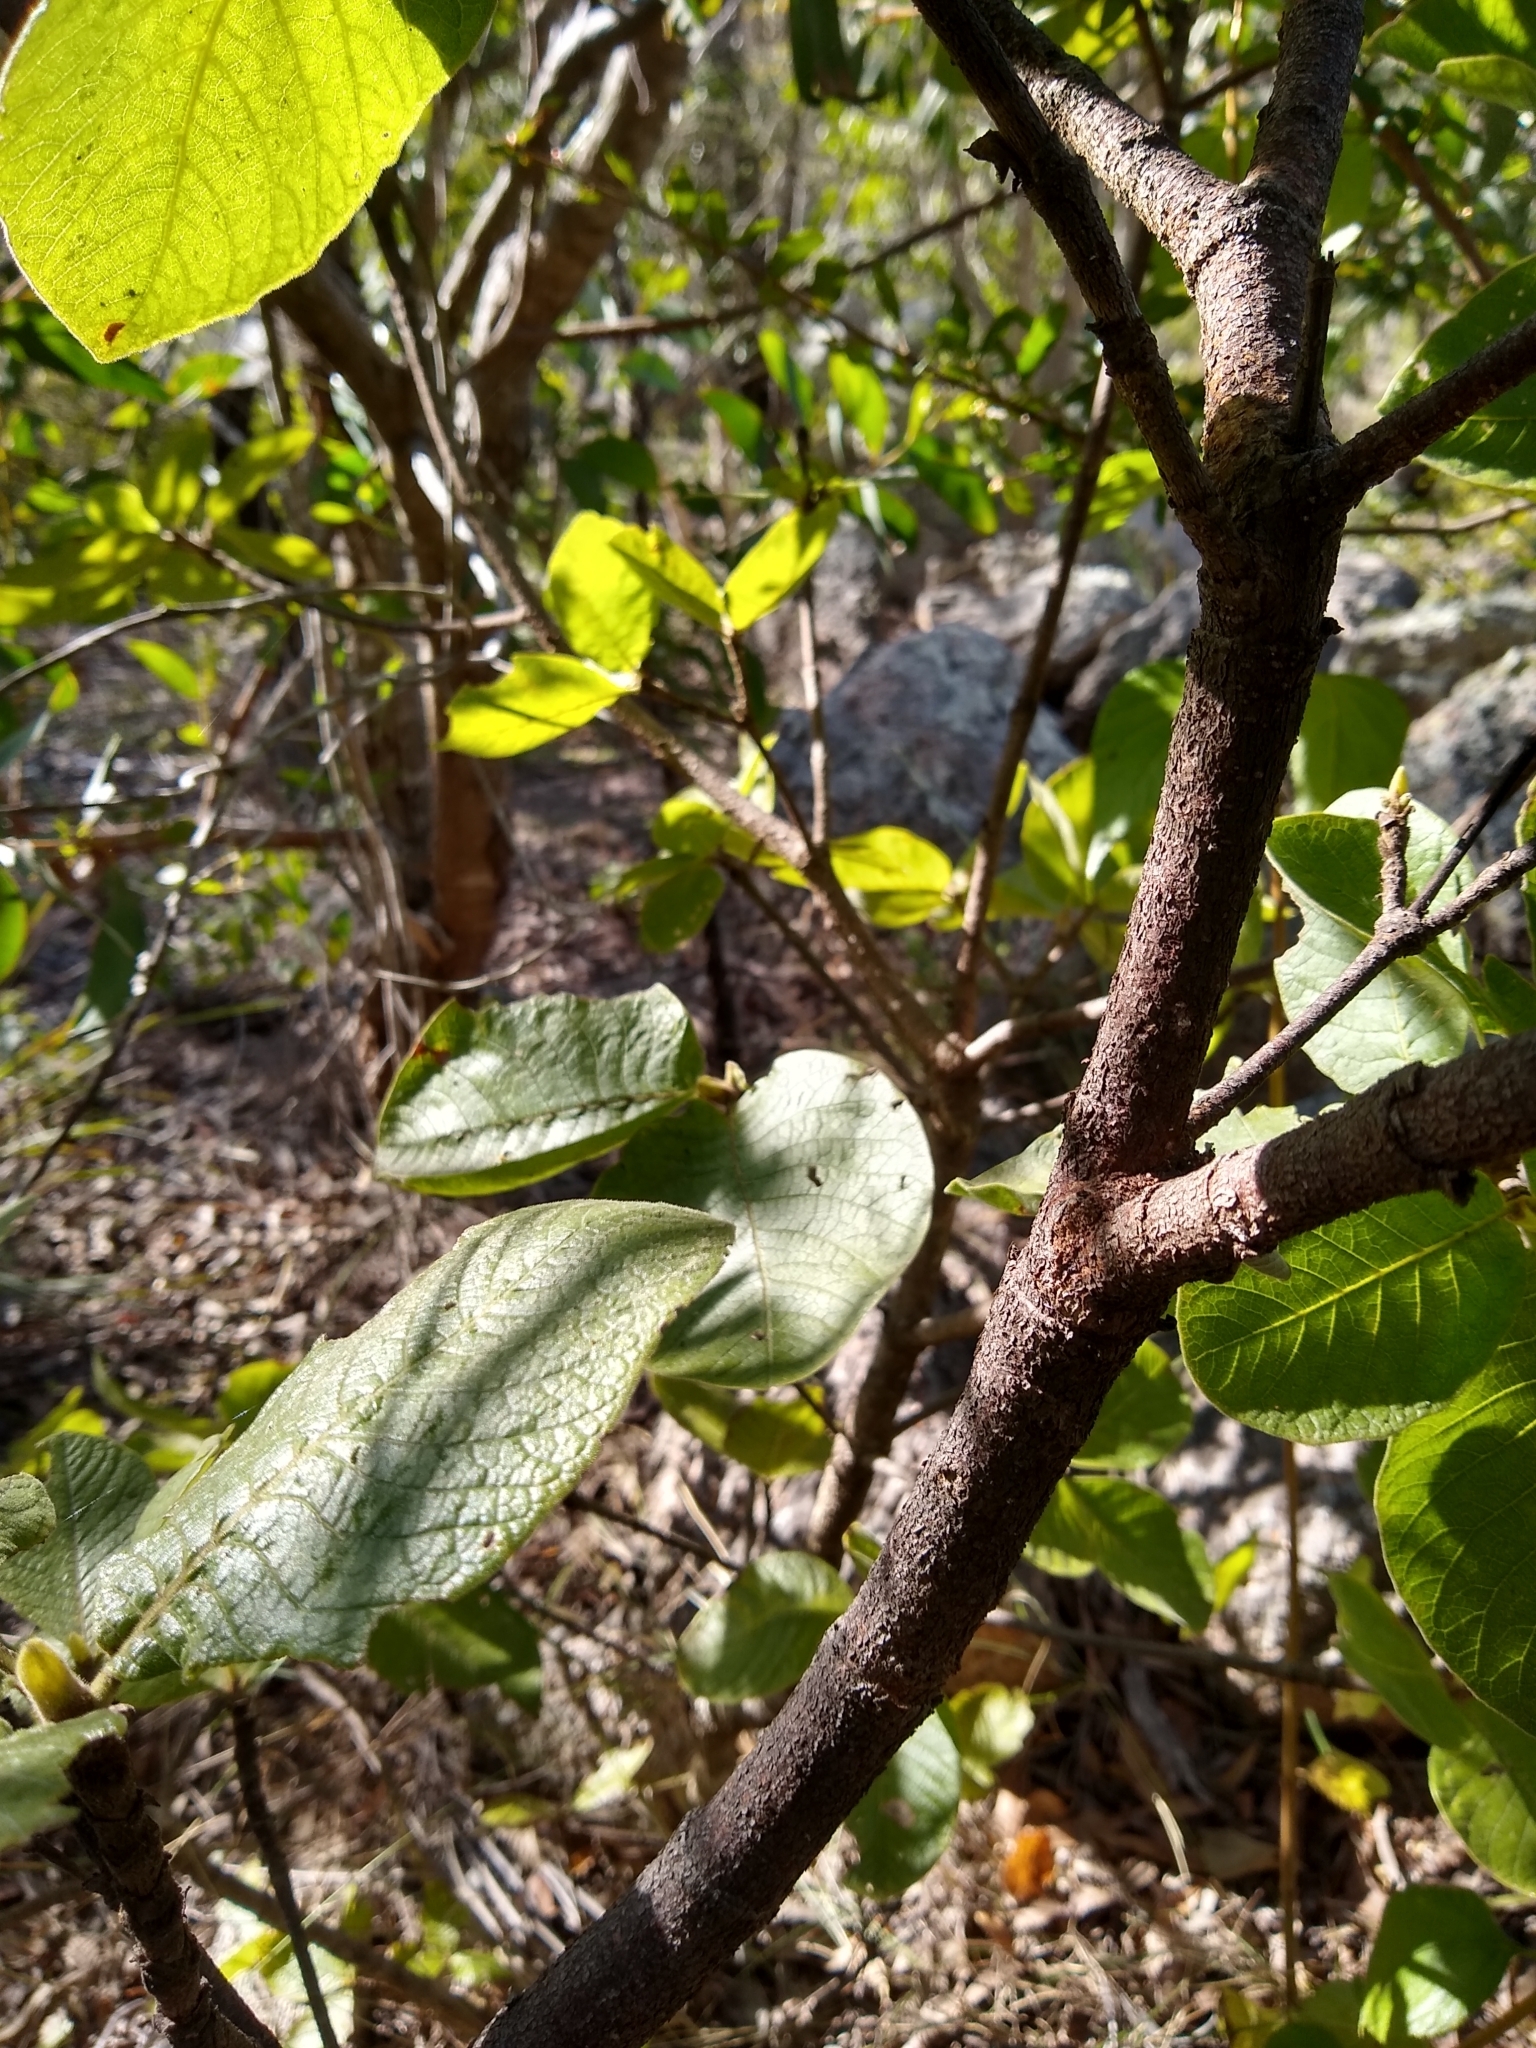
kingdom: Plantae
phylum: Tracheophyta
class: Magnoliopsida
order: Gentianales
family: Rubiaceae
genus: Larsenaikia
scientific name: Larsenaikia ochreata
